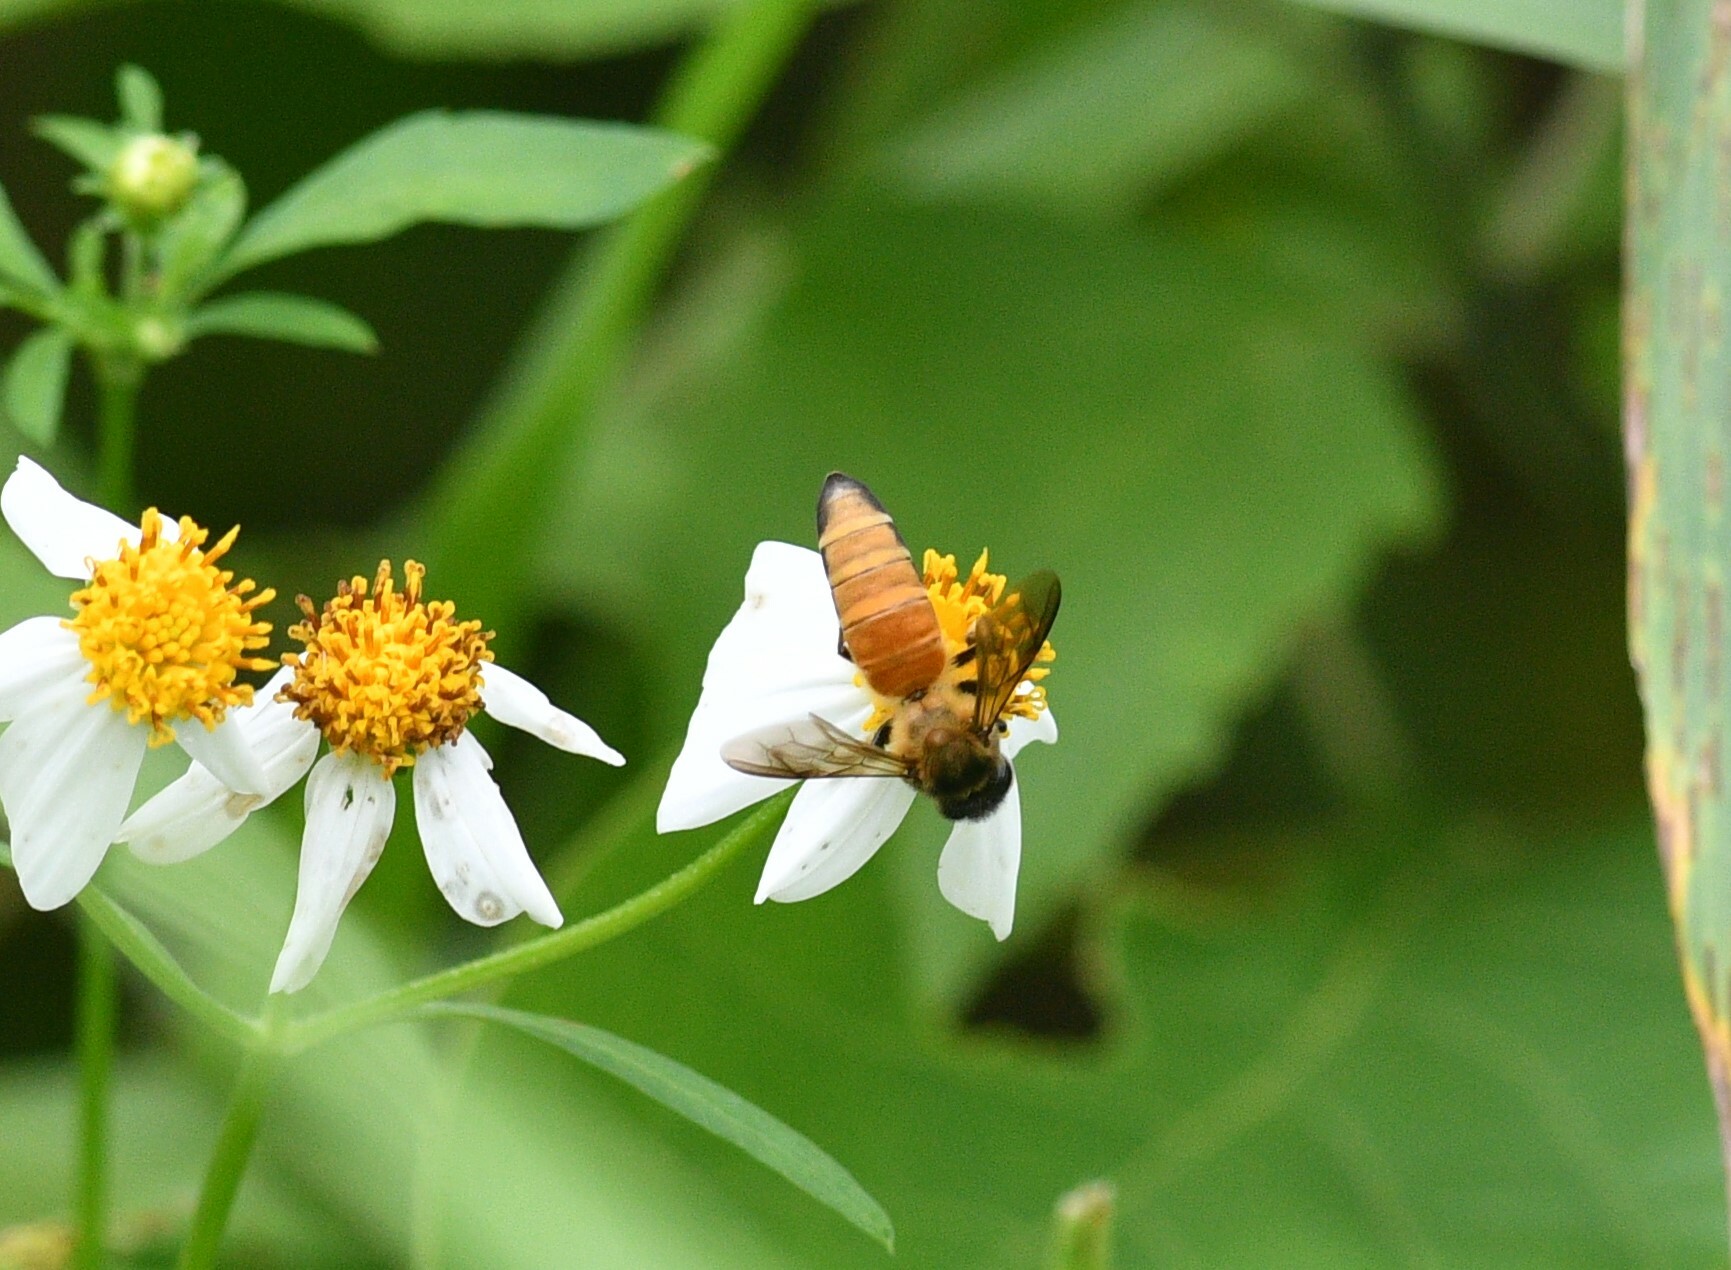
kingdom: Animalia
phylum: Arthropoda
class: Insecta
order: Hymenoptera
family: Apidae
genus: Apis
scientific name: Apis dorsata
